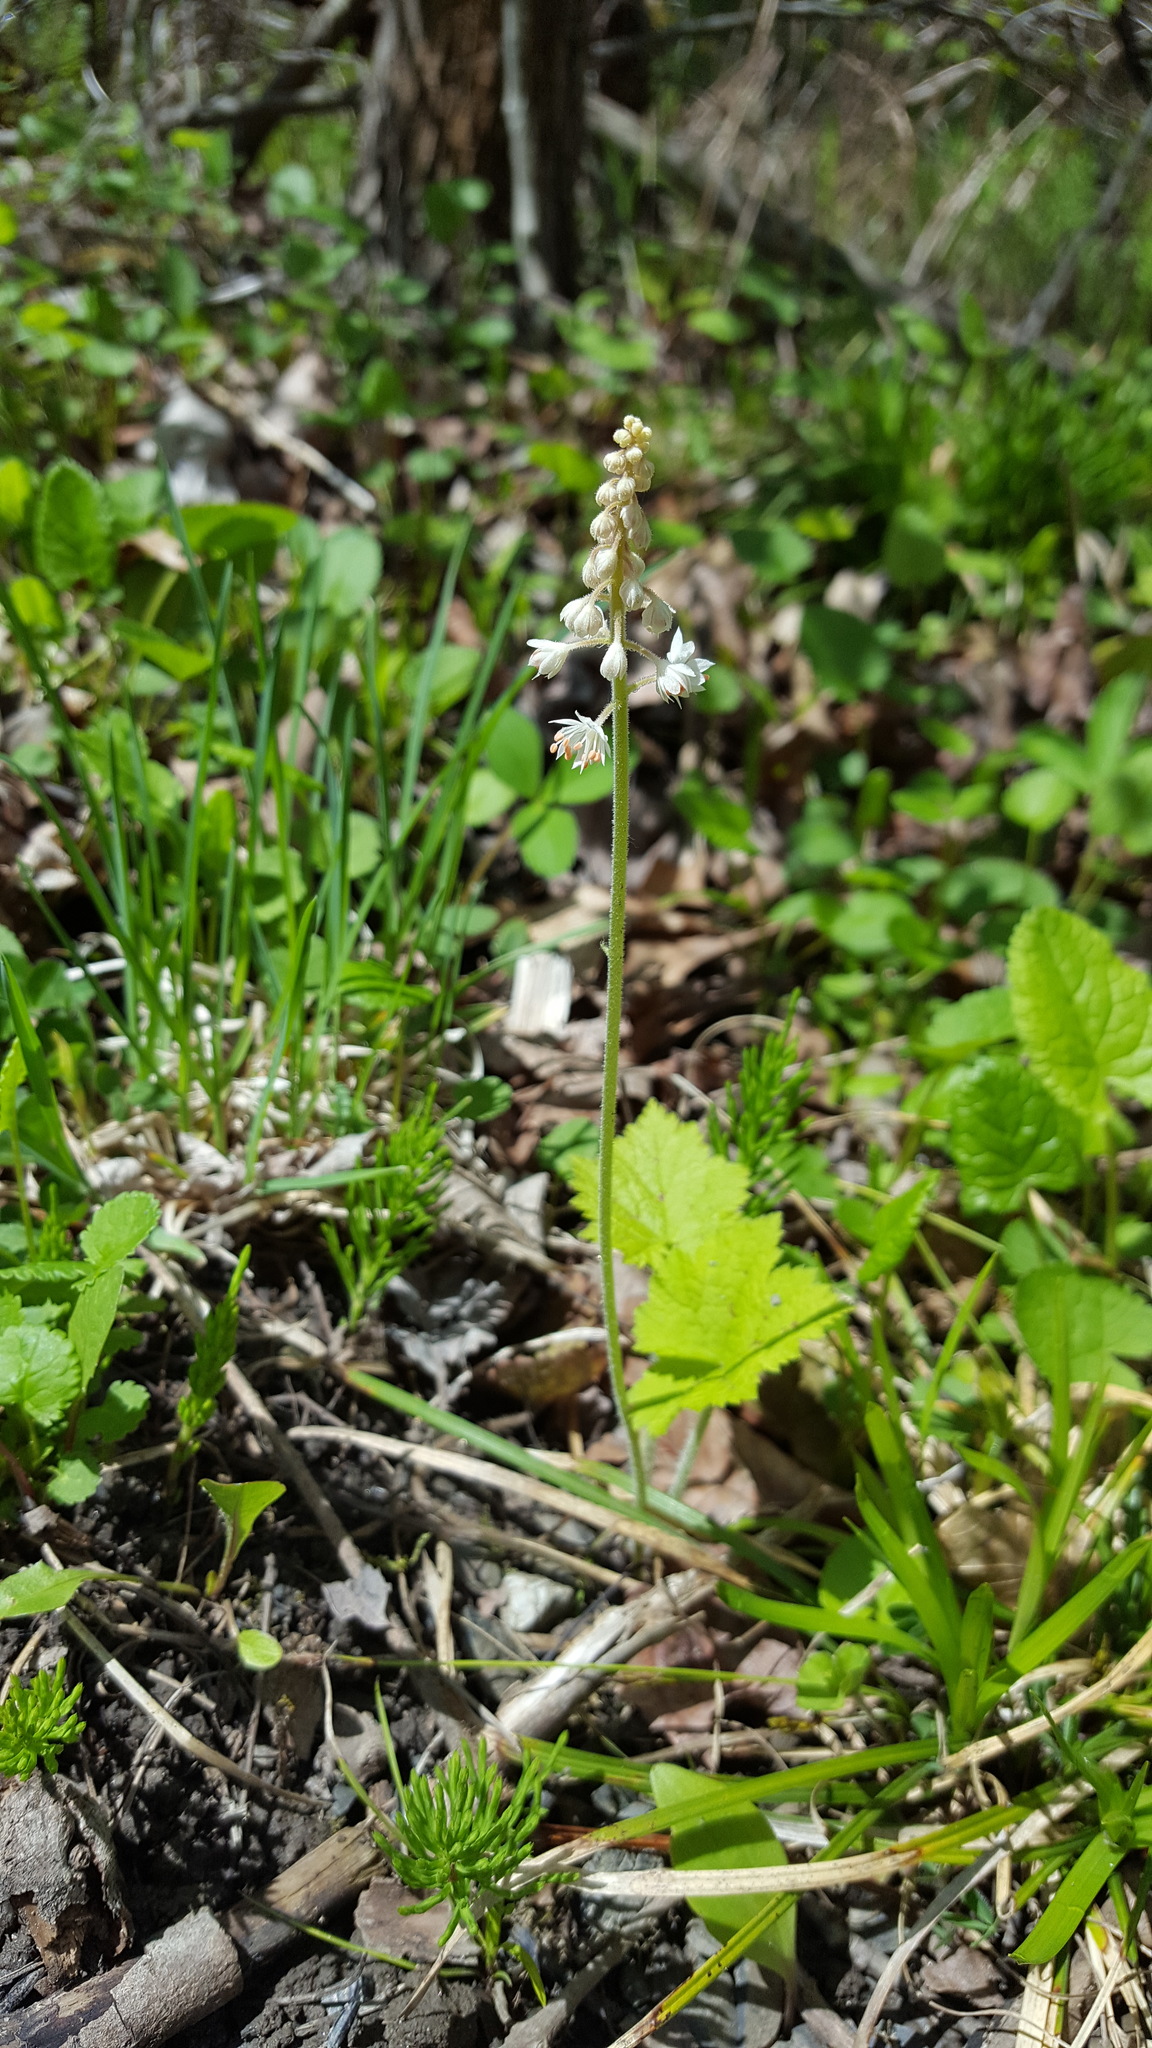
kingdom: Plantae
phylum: Tracheophyta
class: Magnoliopsida
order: Saxifragales
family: Saxifragaceae
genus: Tiarella
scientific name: Tiarella stolonifera
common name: Stoloniferous foamflower
